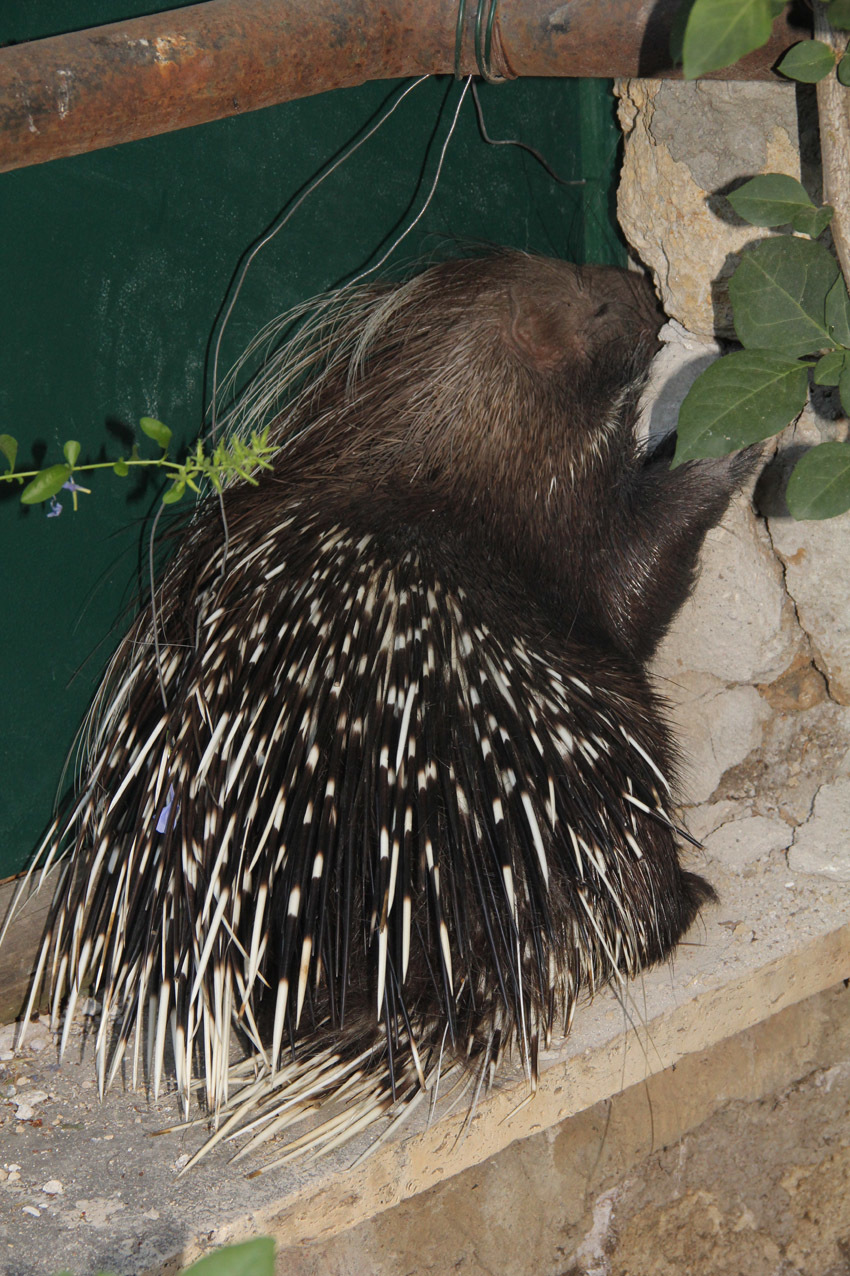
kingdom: Animalia
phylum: Chordata
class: Mammalia
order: Rodentia
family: Hystricidae
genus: Hystrix
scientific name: Hystrix cristata
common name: Crested porcupine
